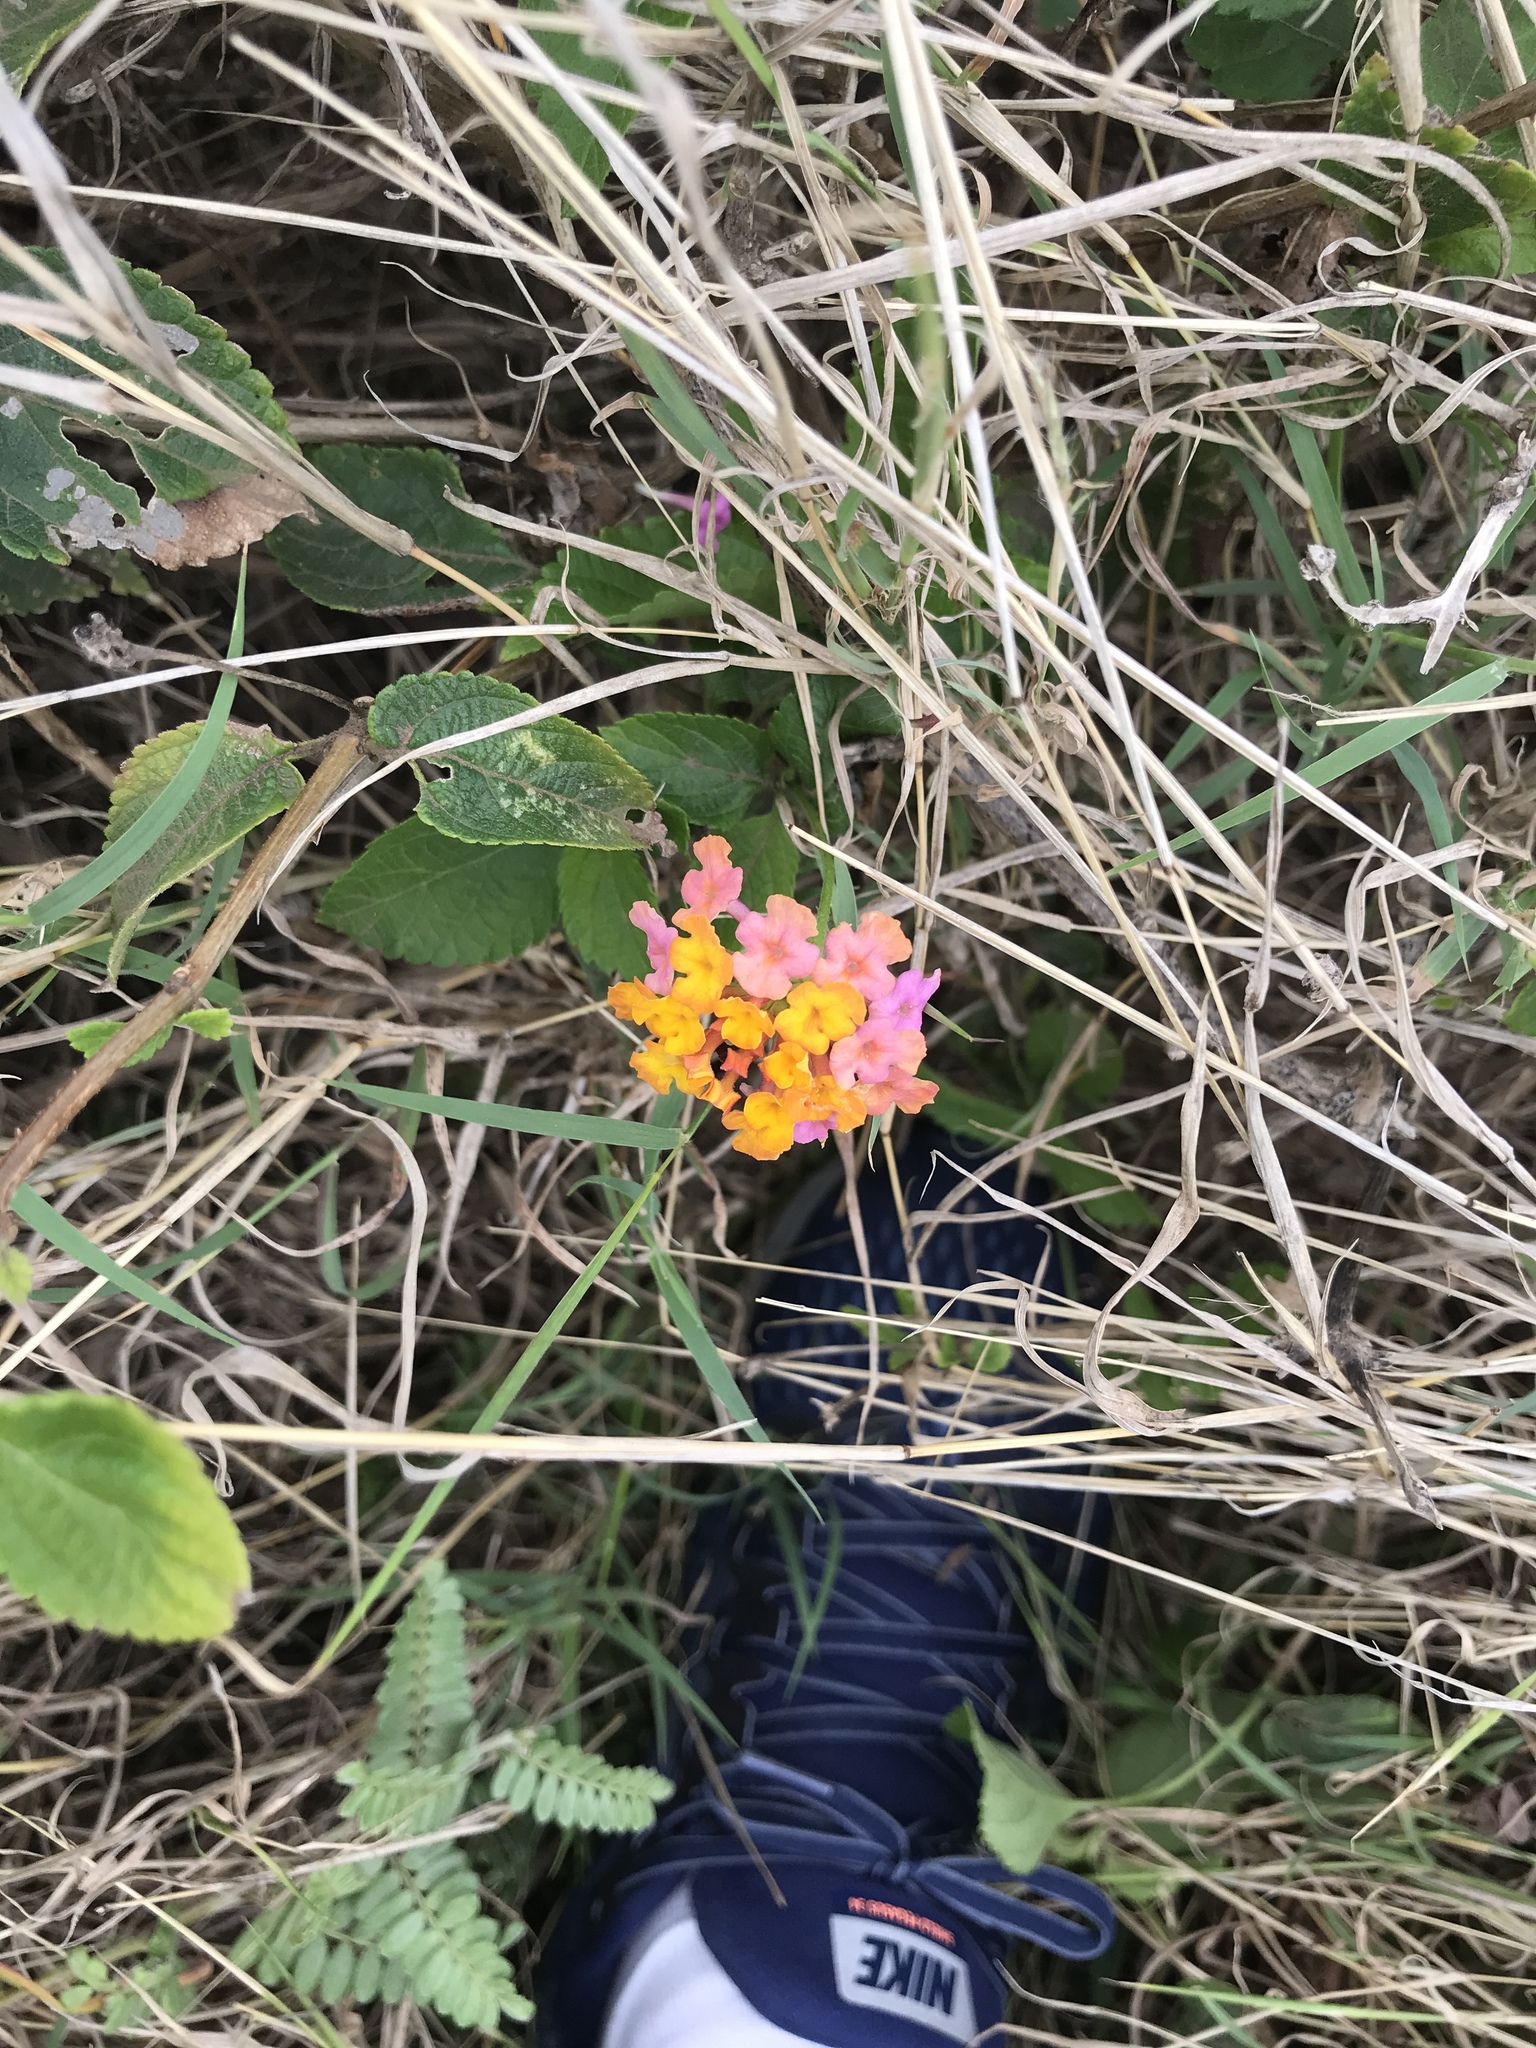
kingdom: Plantae
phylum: Tracheophyta
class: Magnoliopsida
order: Lamiales
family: Verbenaceae
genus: Lantana
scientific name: Lantana camara
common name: Lantana
